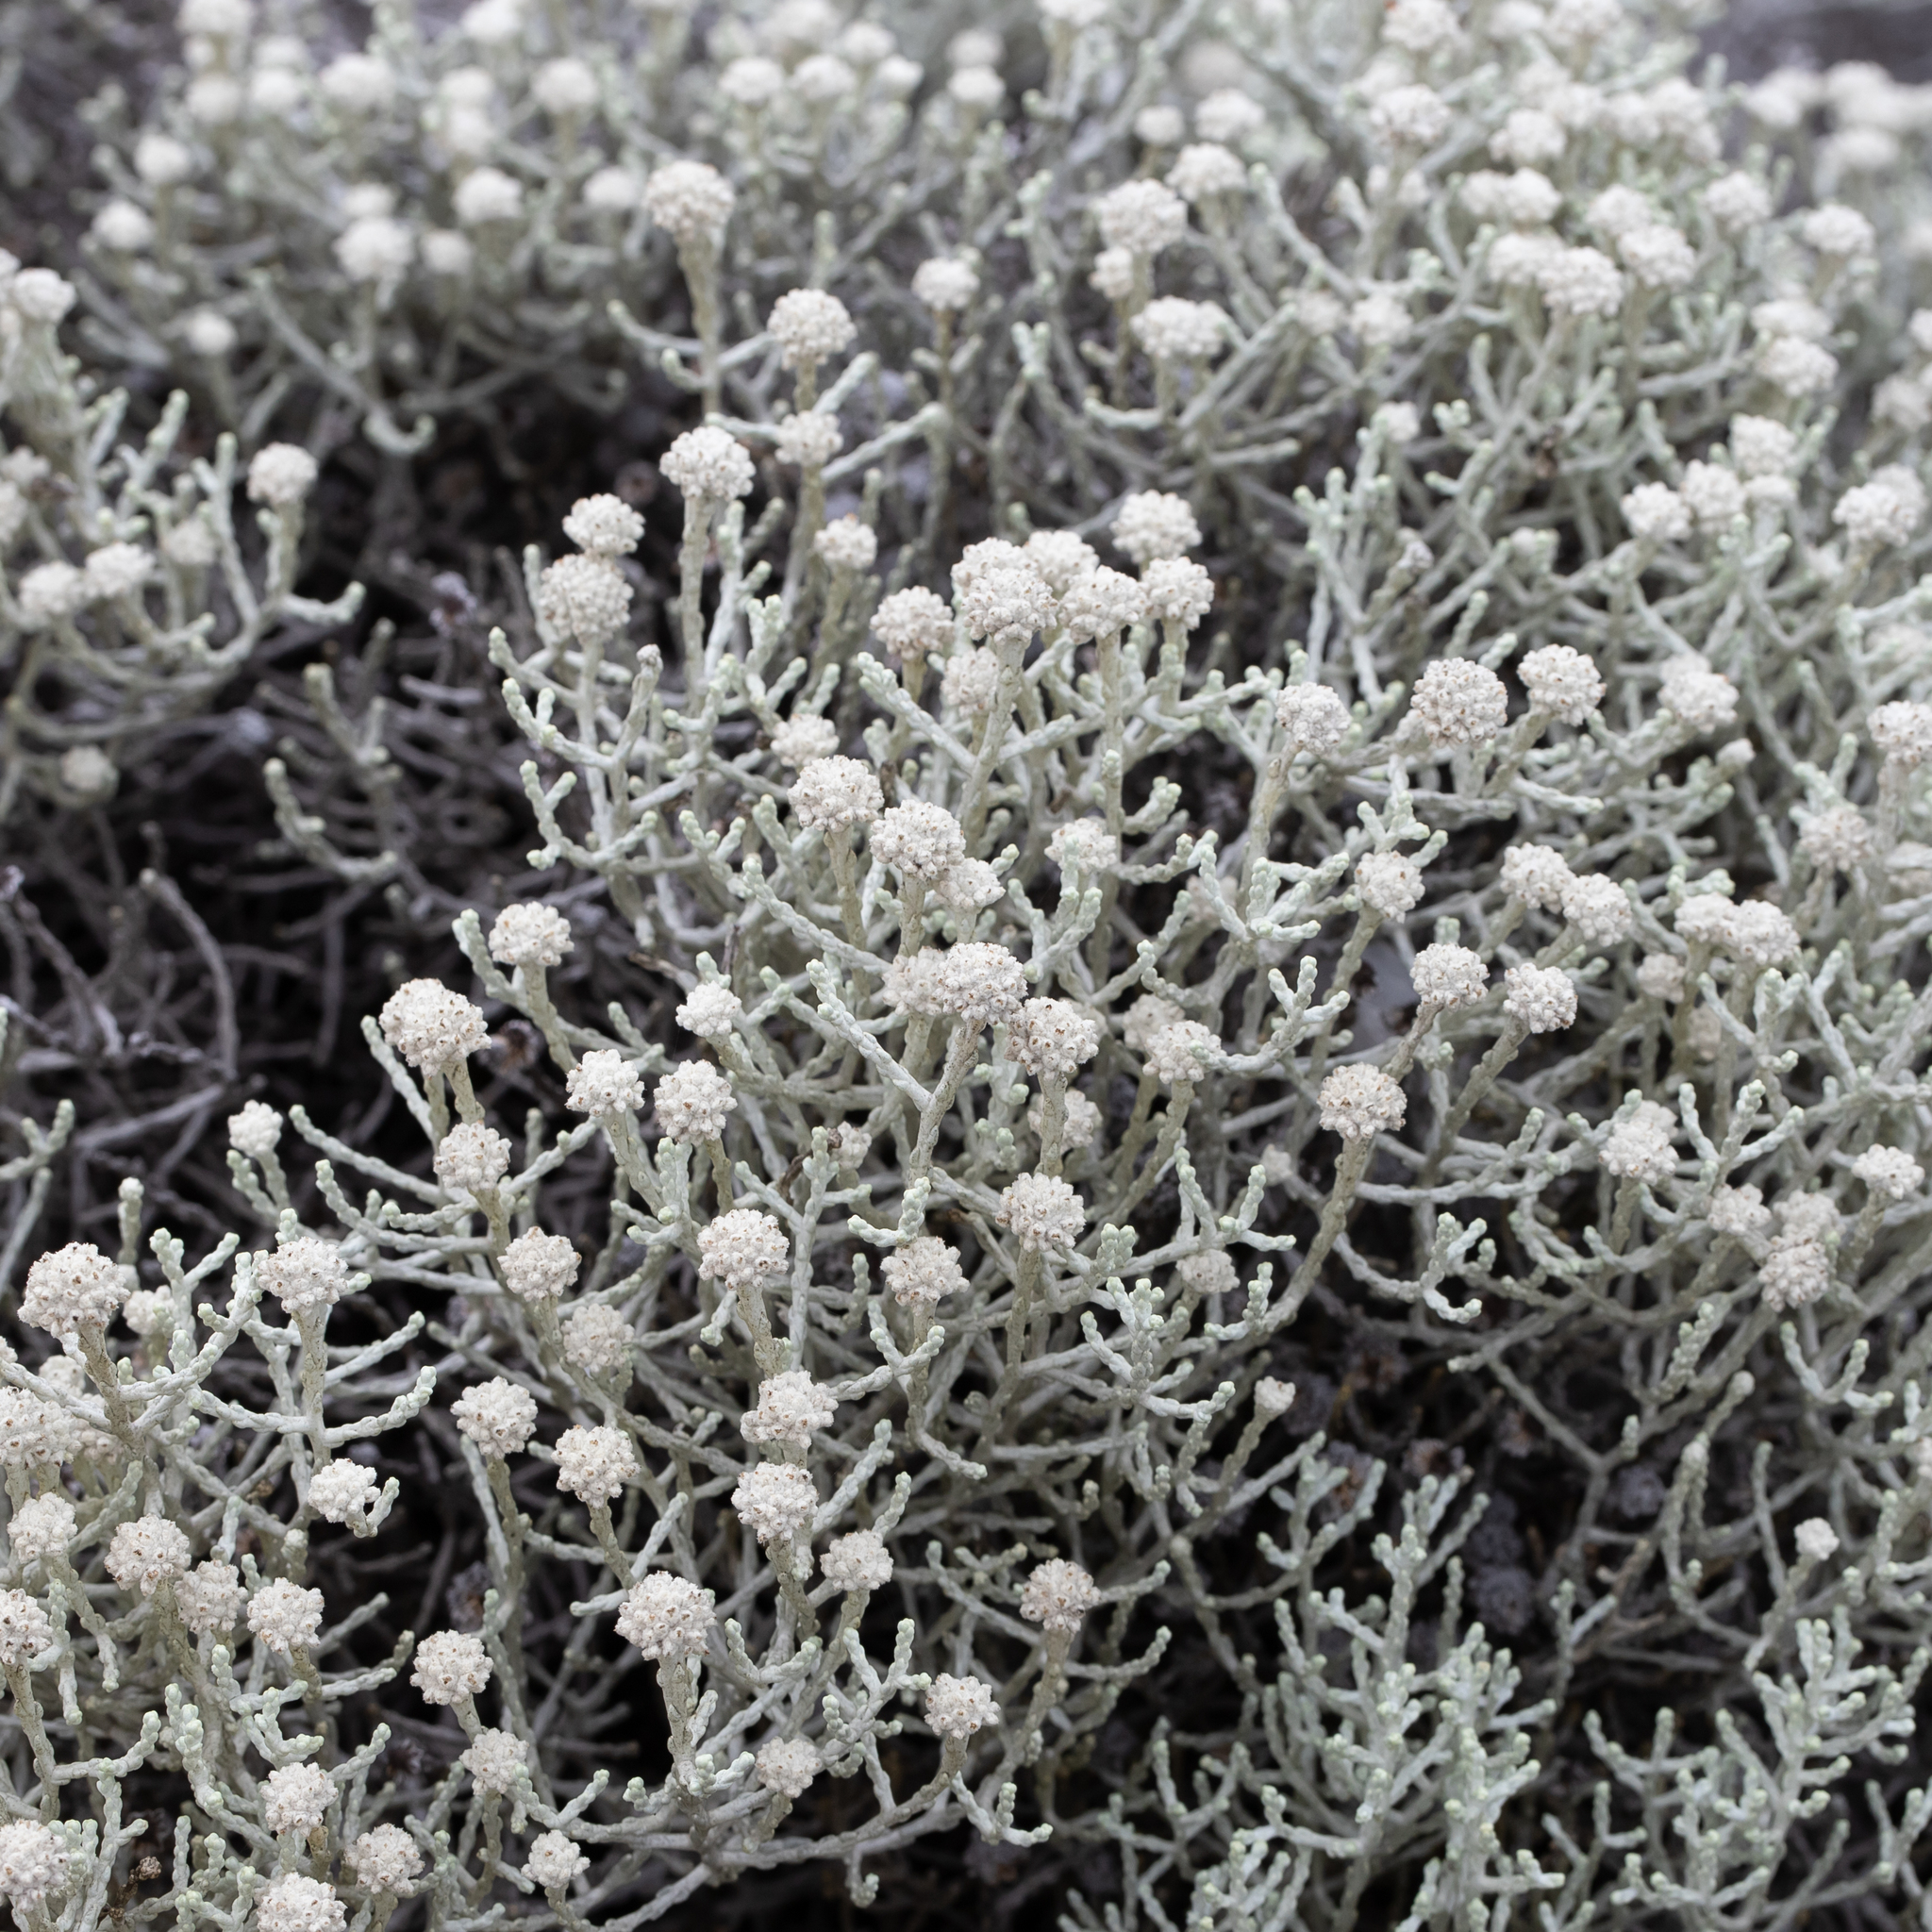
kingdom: Plantae
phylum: Tracheophyta
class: Magnoliopsida
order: Asterales
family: Asteraceae
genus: Calocephalus
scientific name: Calocephalus brownii
